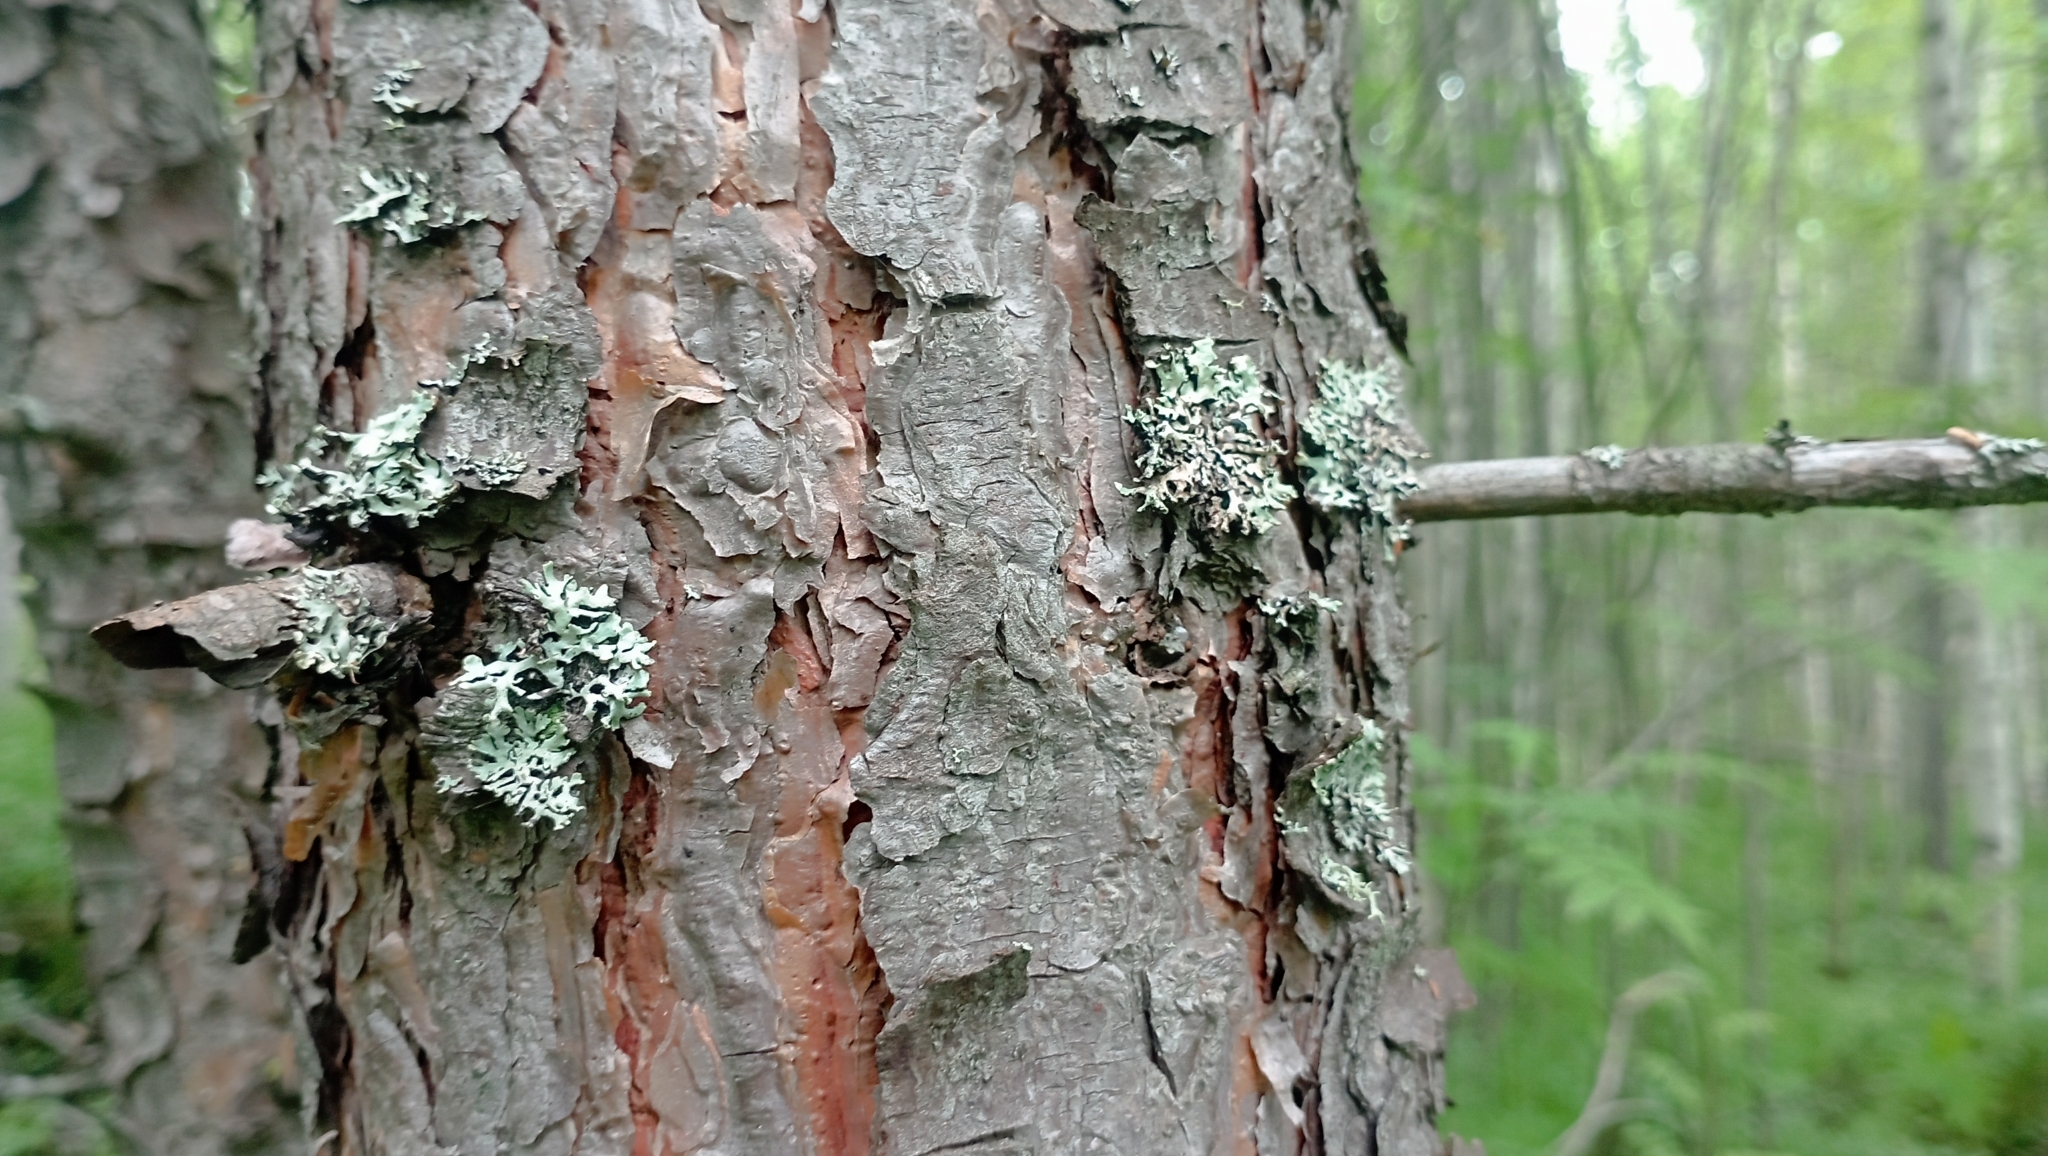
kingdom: Plantae
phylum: Tracheophyta
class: Pinopsida
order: Pinales
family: Pinaceae
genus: Pinus
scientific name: Pinus sylvestris
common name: Scots pine
